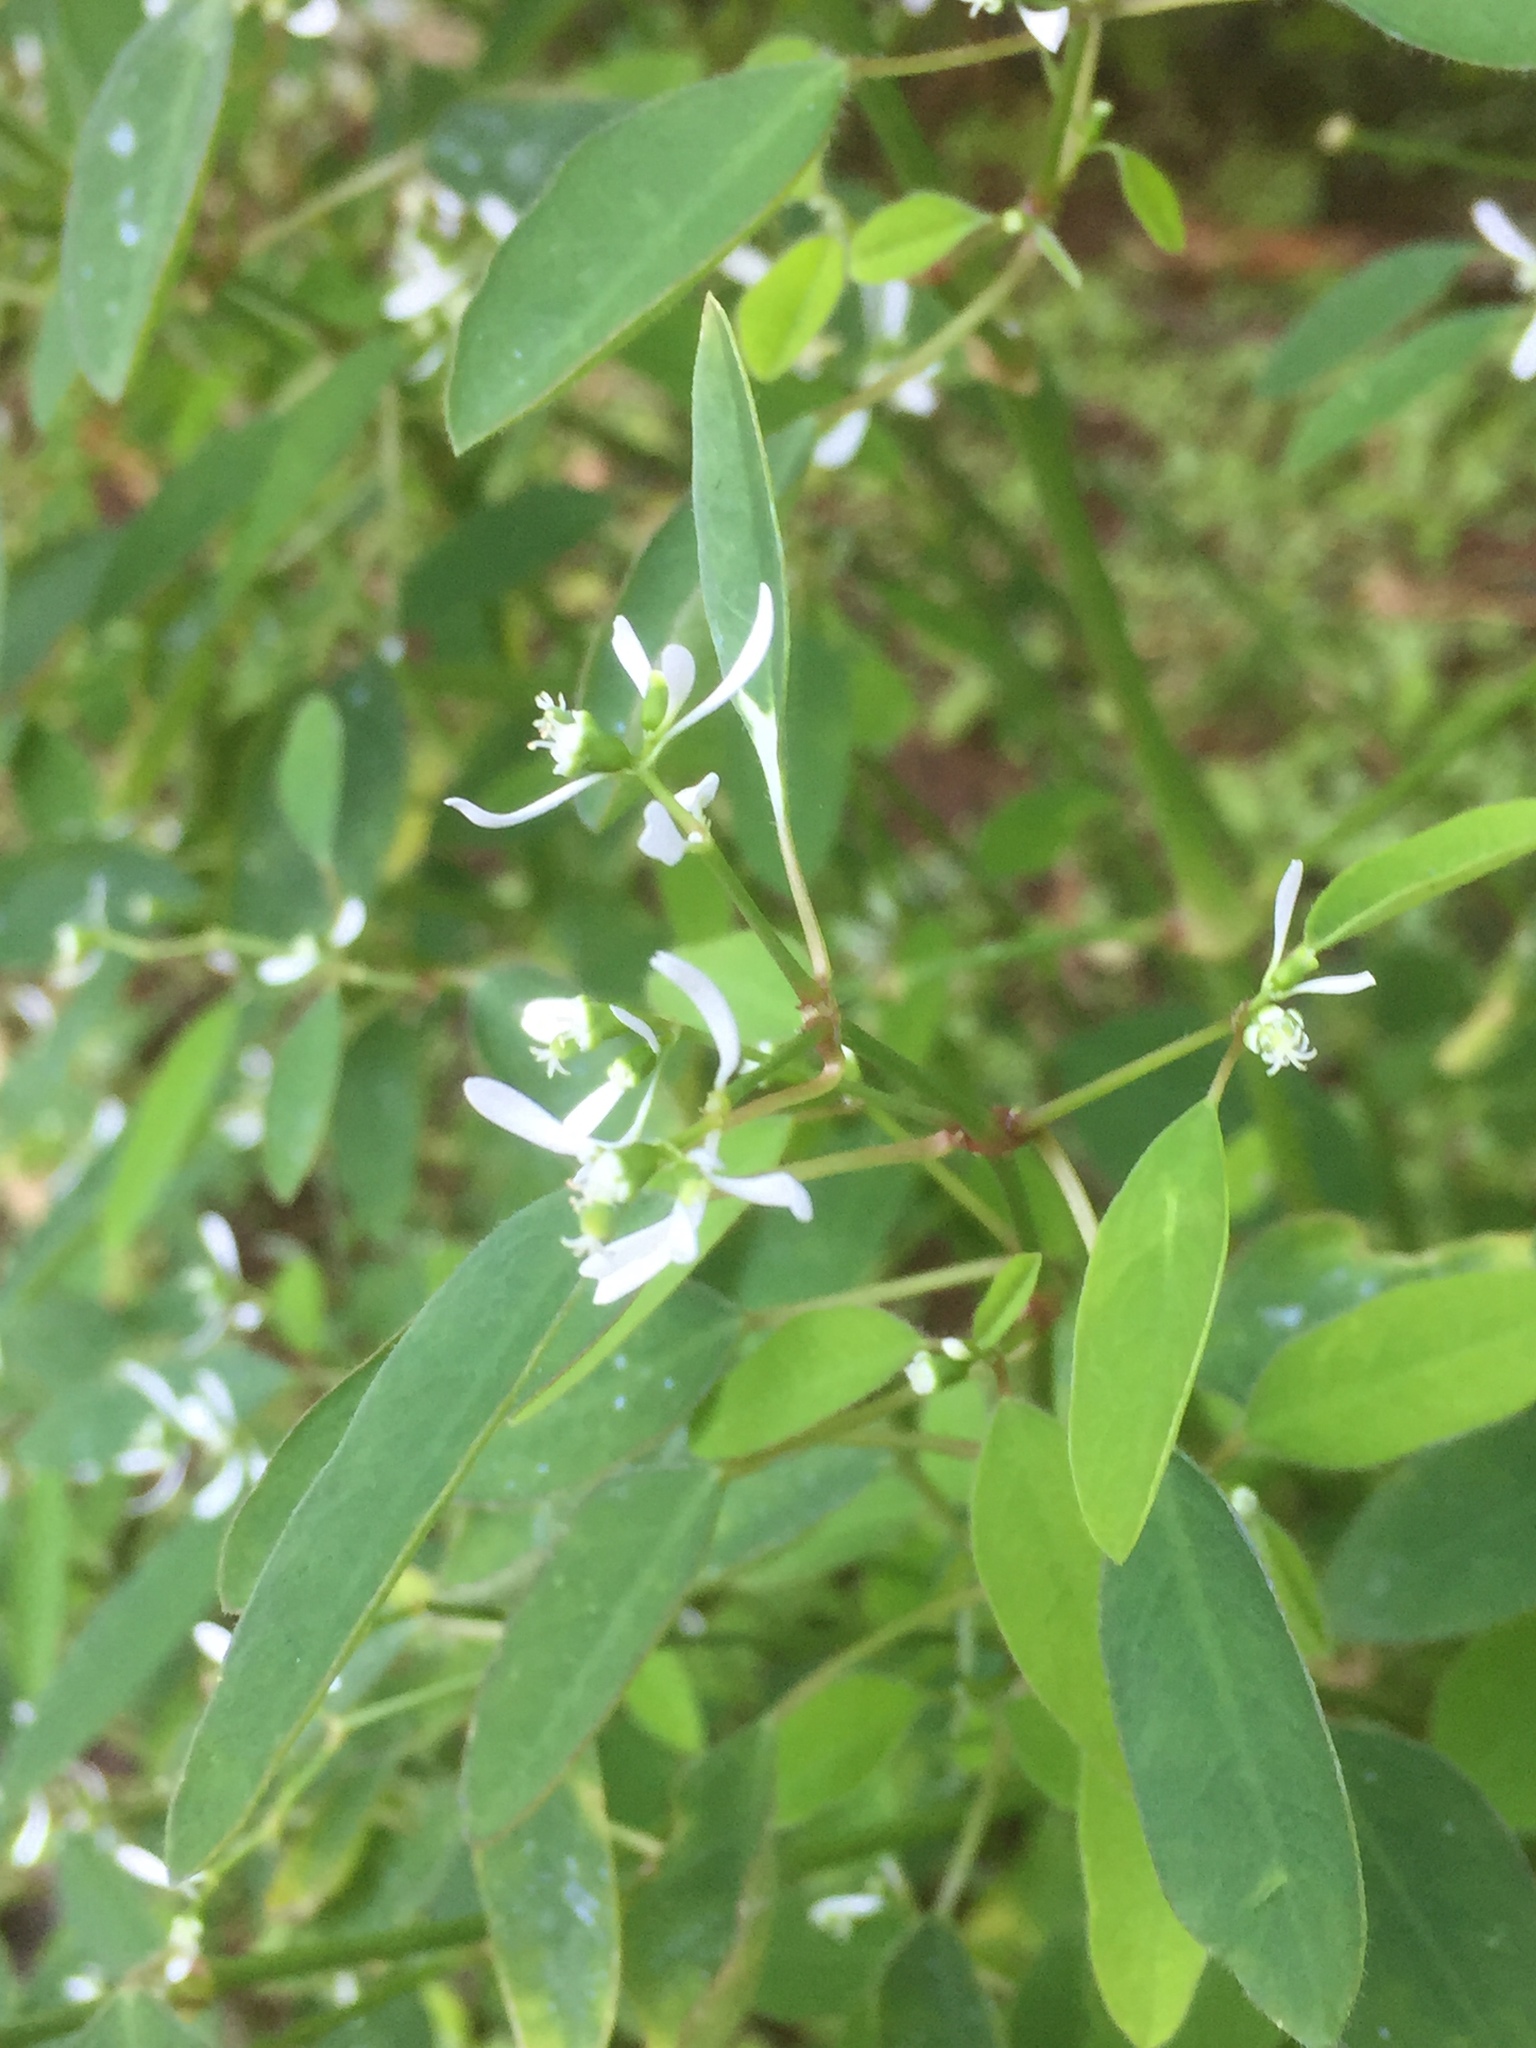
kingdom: Plantae
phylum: Tracheophyta
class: Magnoliopsida
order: Malpighiales
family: Euphorbiaceae
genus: Euphorbia
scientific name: Euphorbia graminea
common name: Grassleaf spurge
